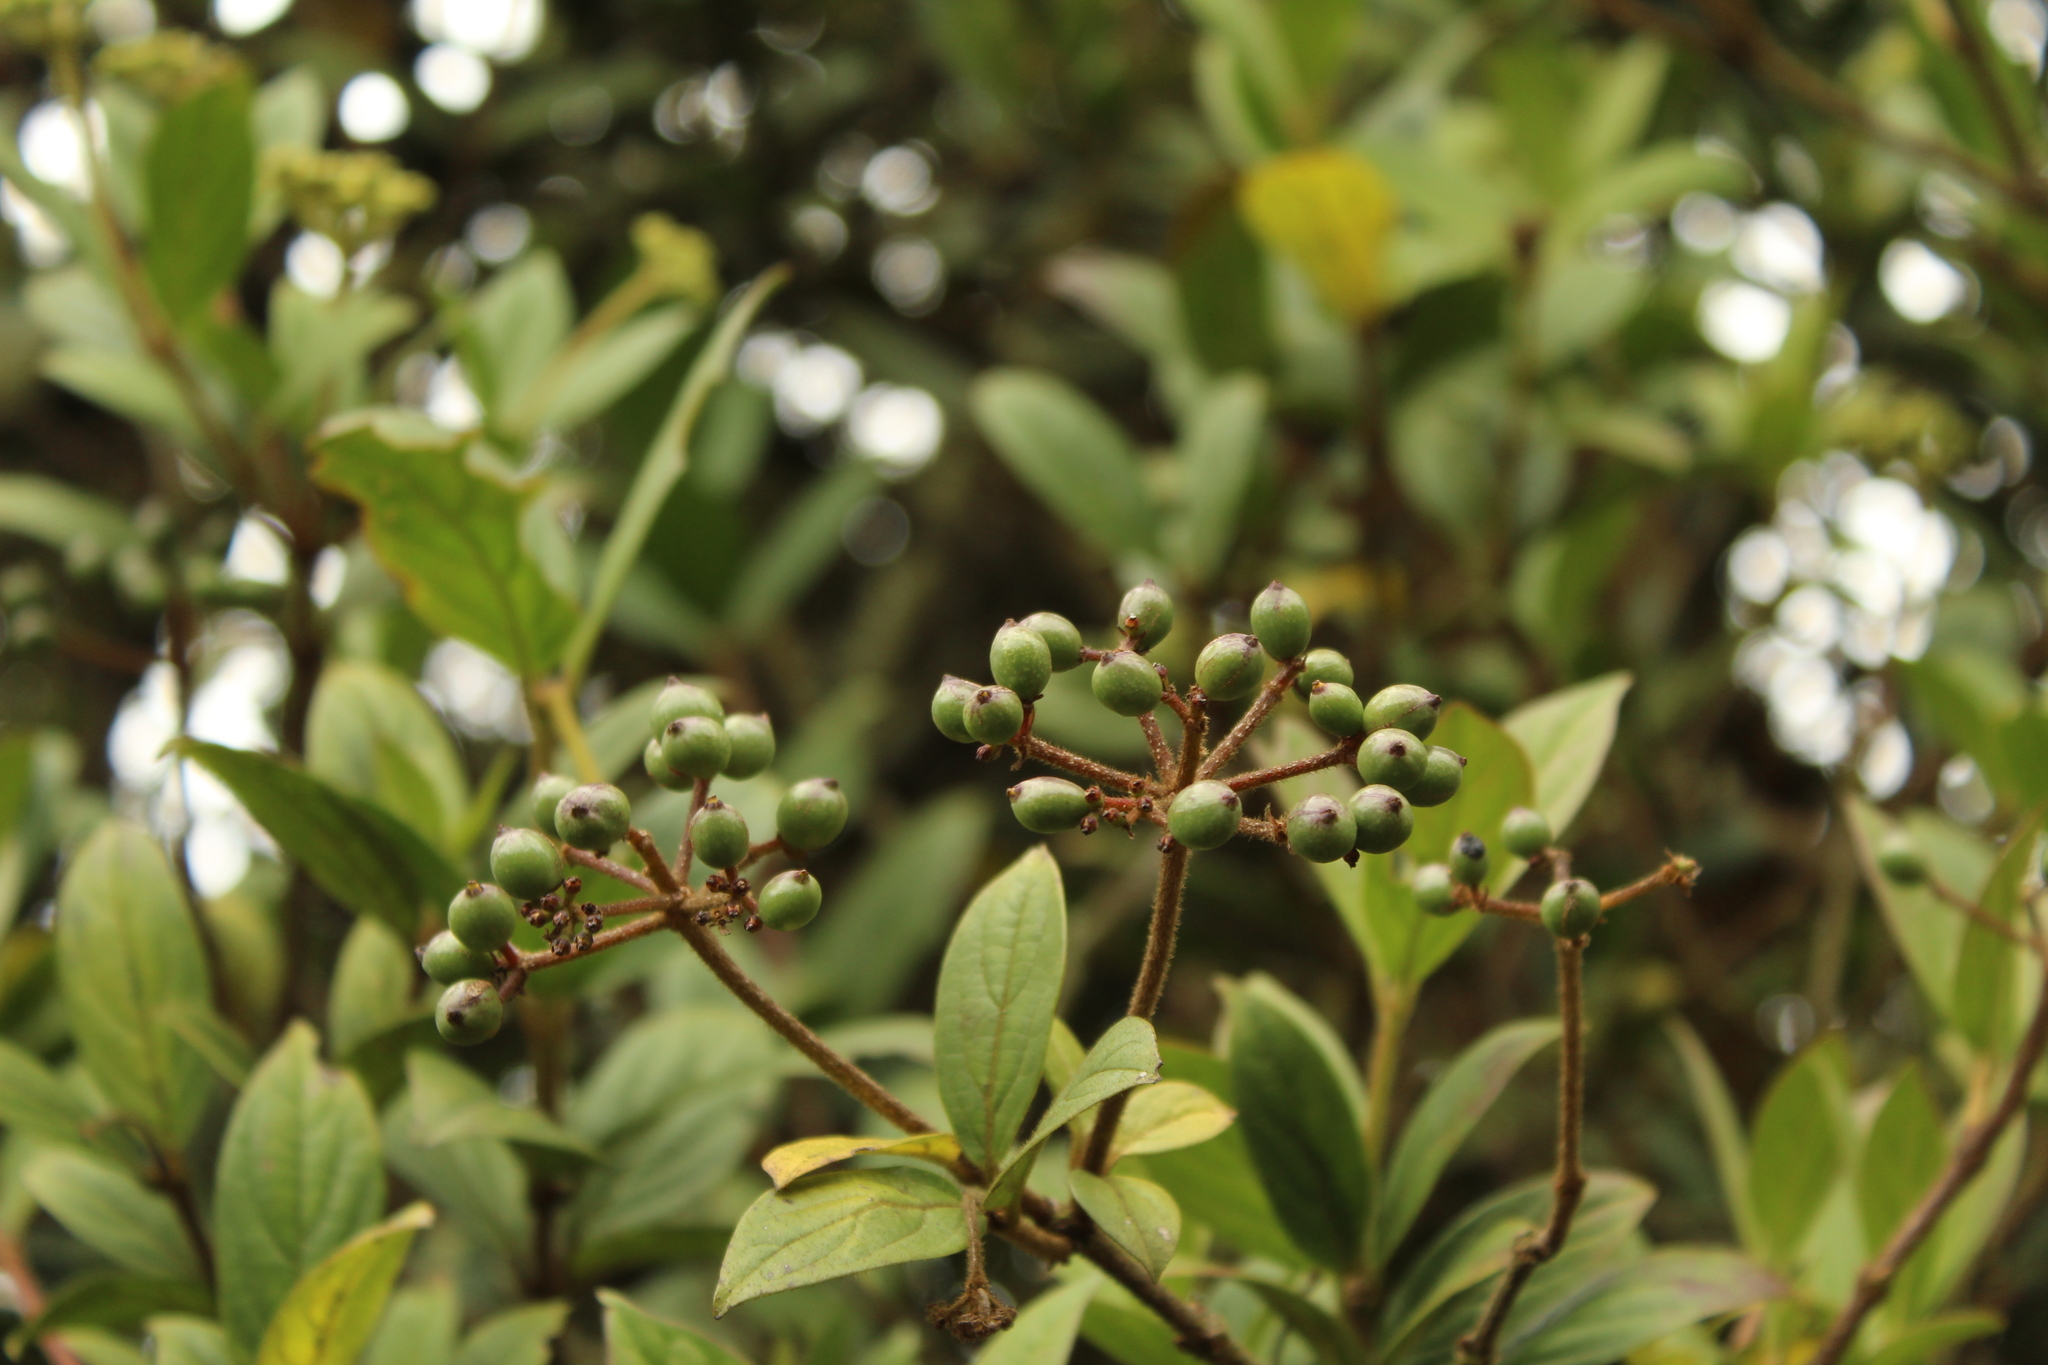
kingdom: Plantae
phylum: Tracheophyta
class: Magnoliopsida
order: Dipsacales
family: Viburnaceae
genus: Viburnum
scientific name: Viburnum triphyllum
